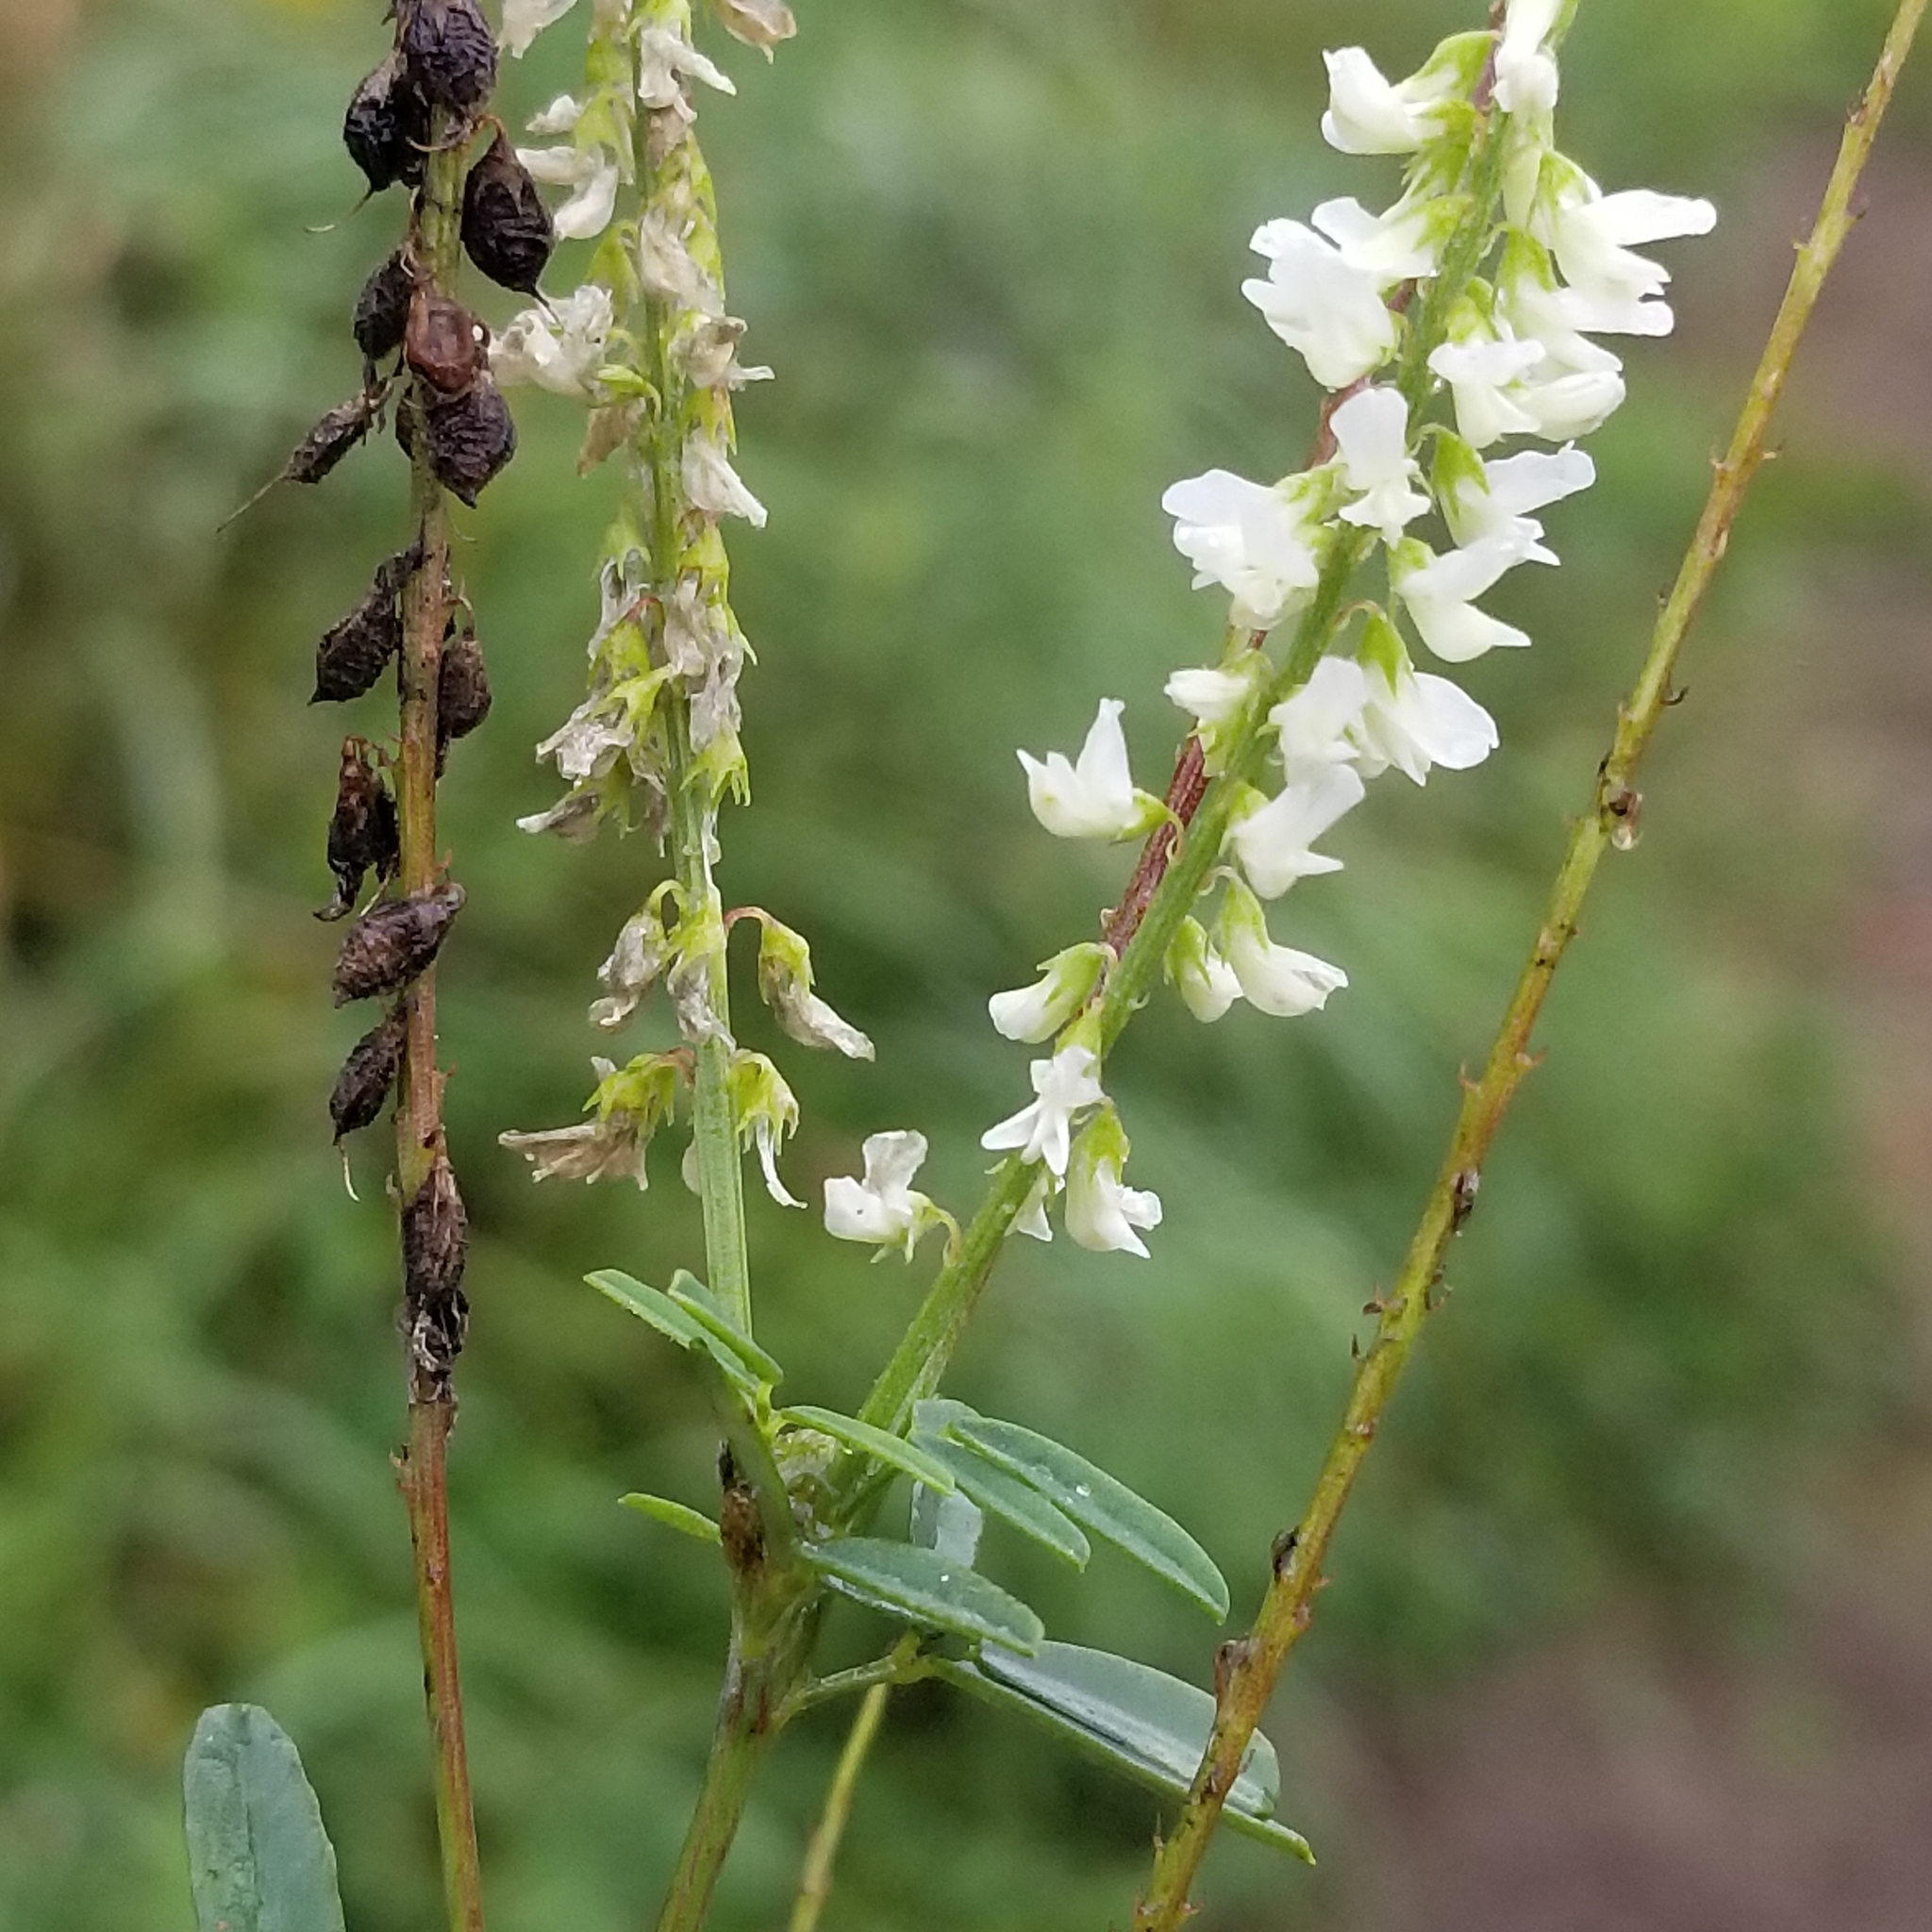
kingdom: Plantae
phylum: Tracheophyta
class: Magnoliopsida
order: Fabales
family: Fabaceae
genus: Melilotus
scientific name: Melilotus albus
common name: White melilot
